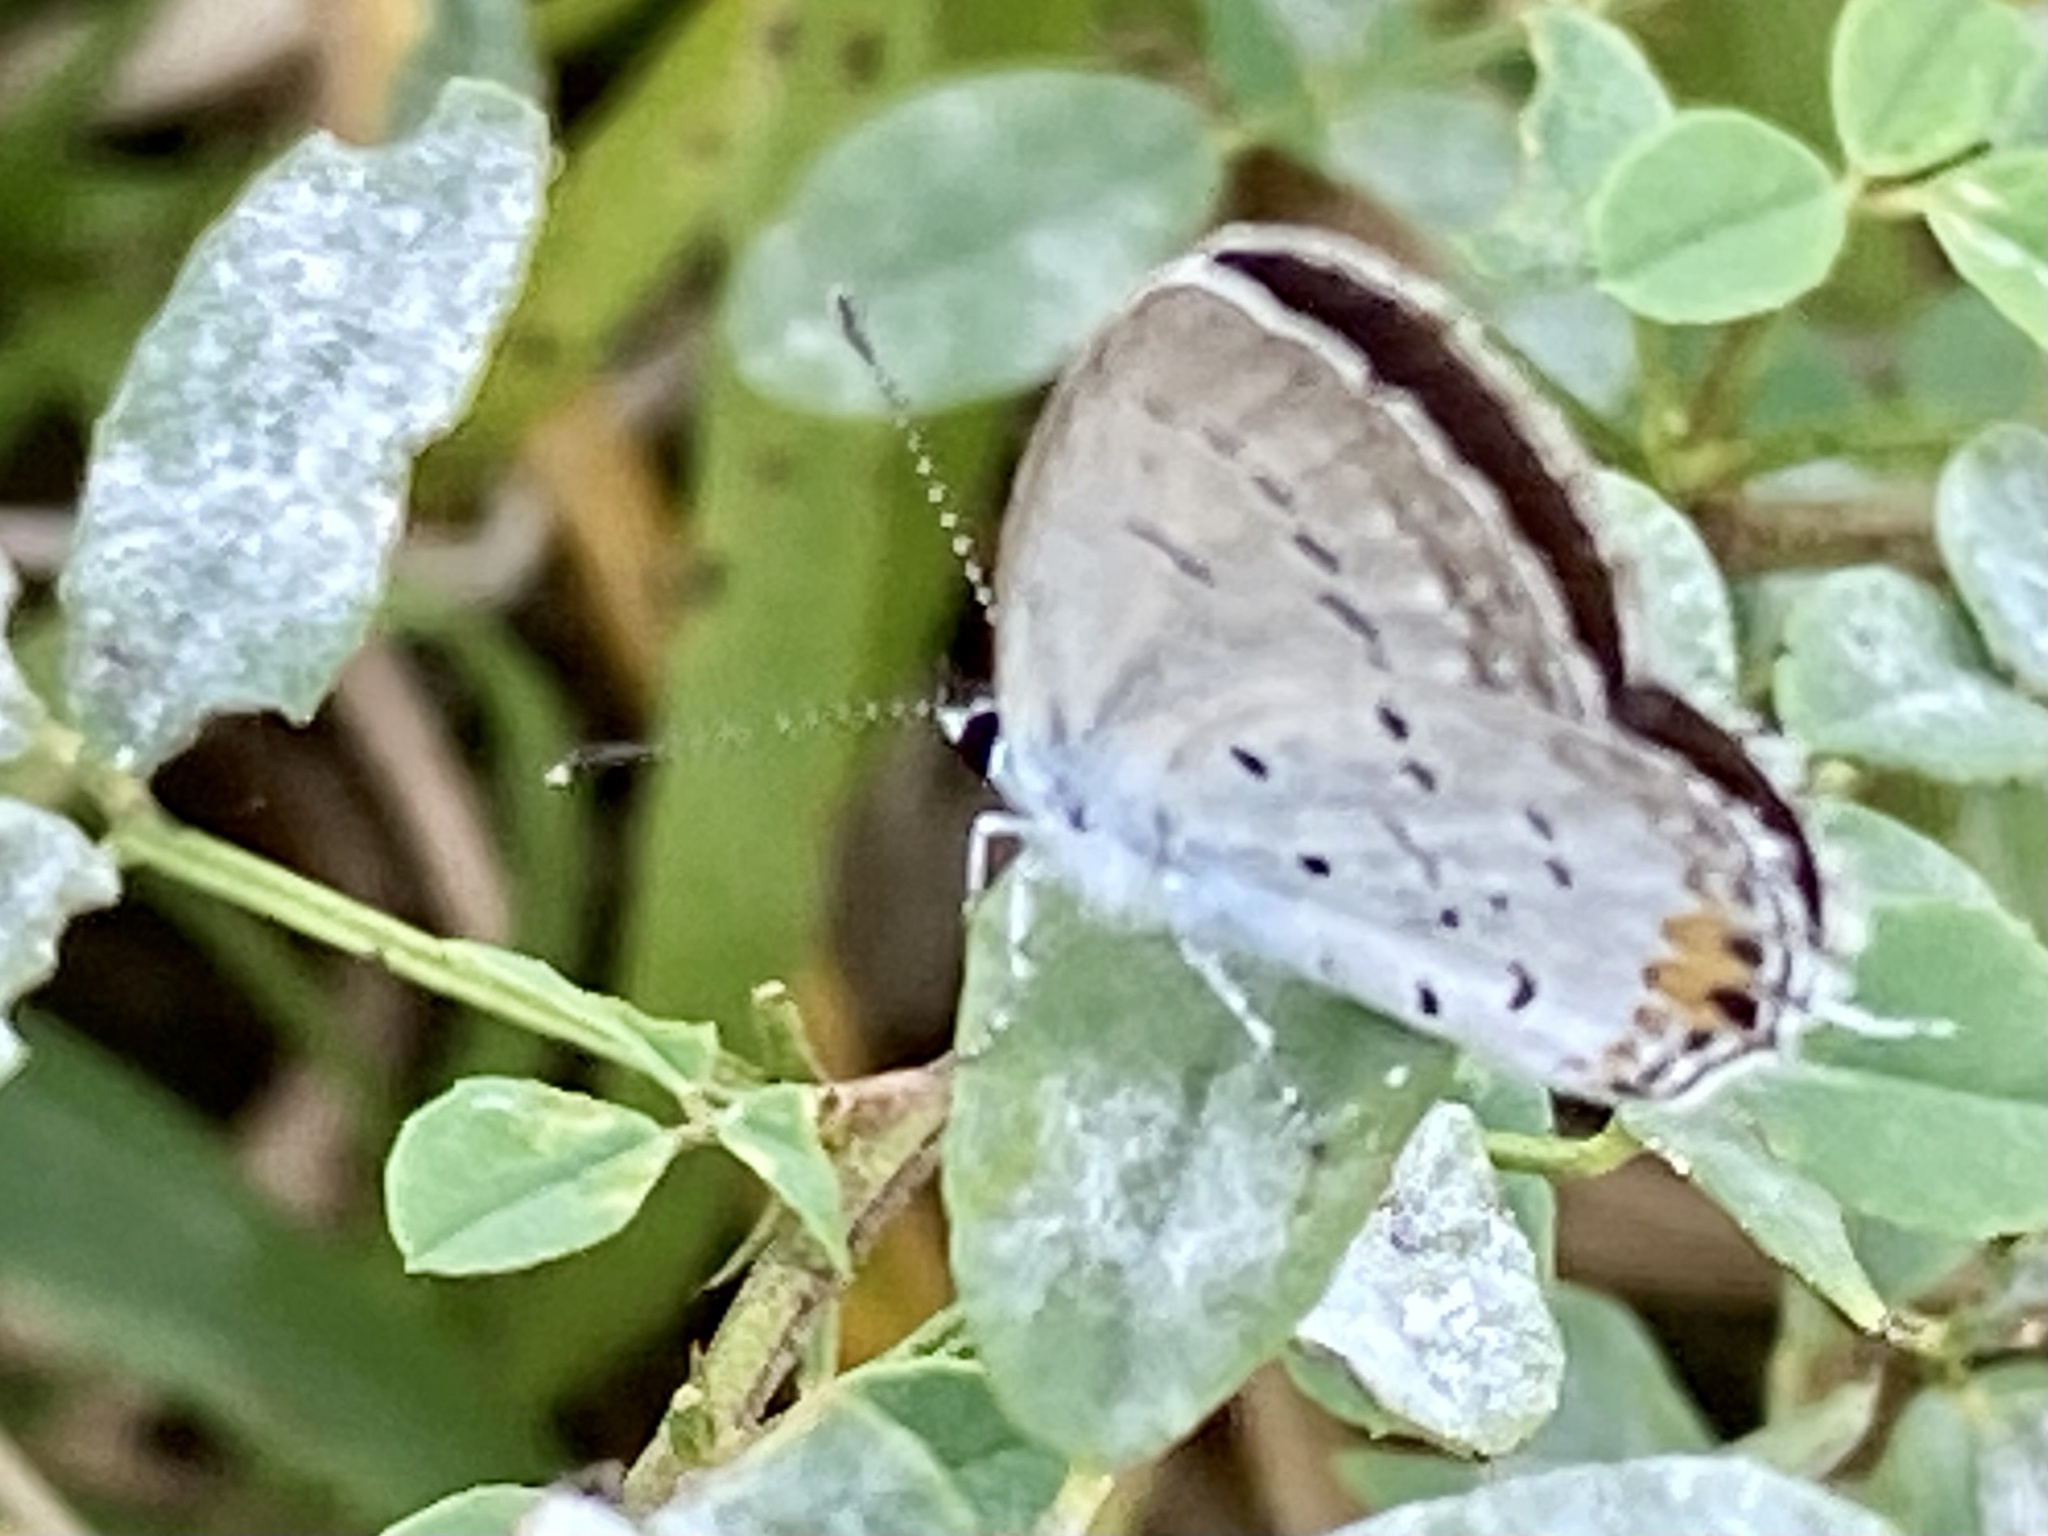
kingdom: Animalia
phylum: Arthropoda
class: Insecta
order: Lepidoptera
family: Lycaenidae
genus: Elkalyce
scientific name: Elkalyce comyntas
